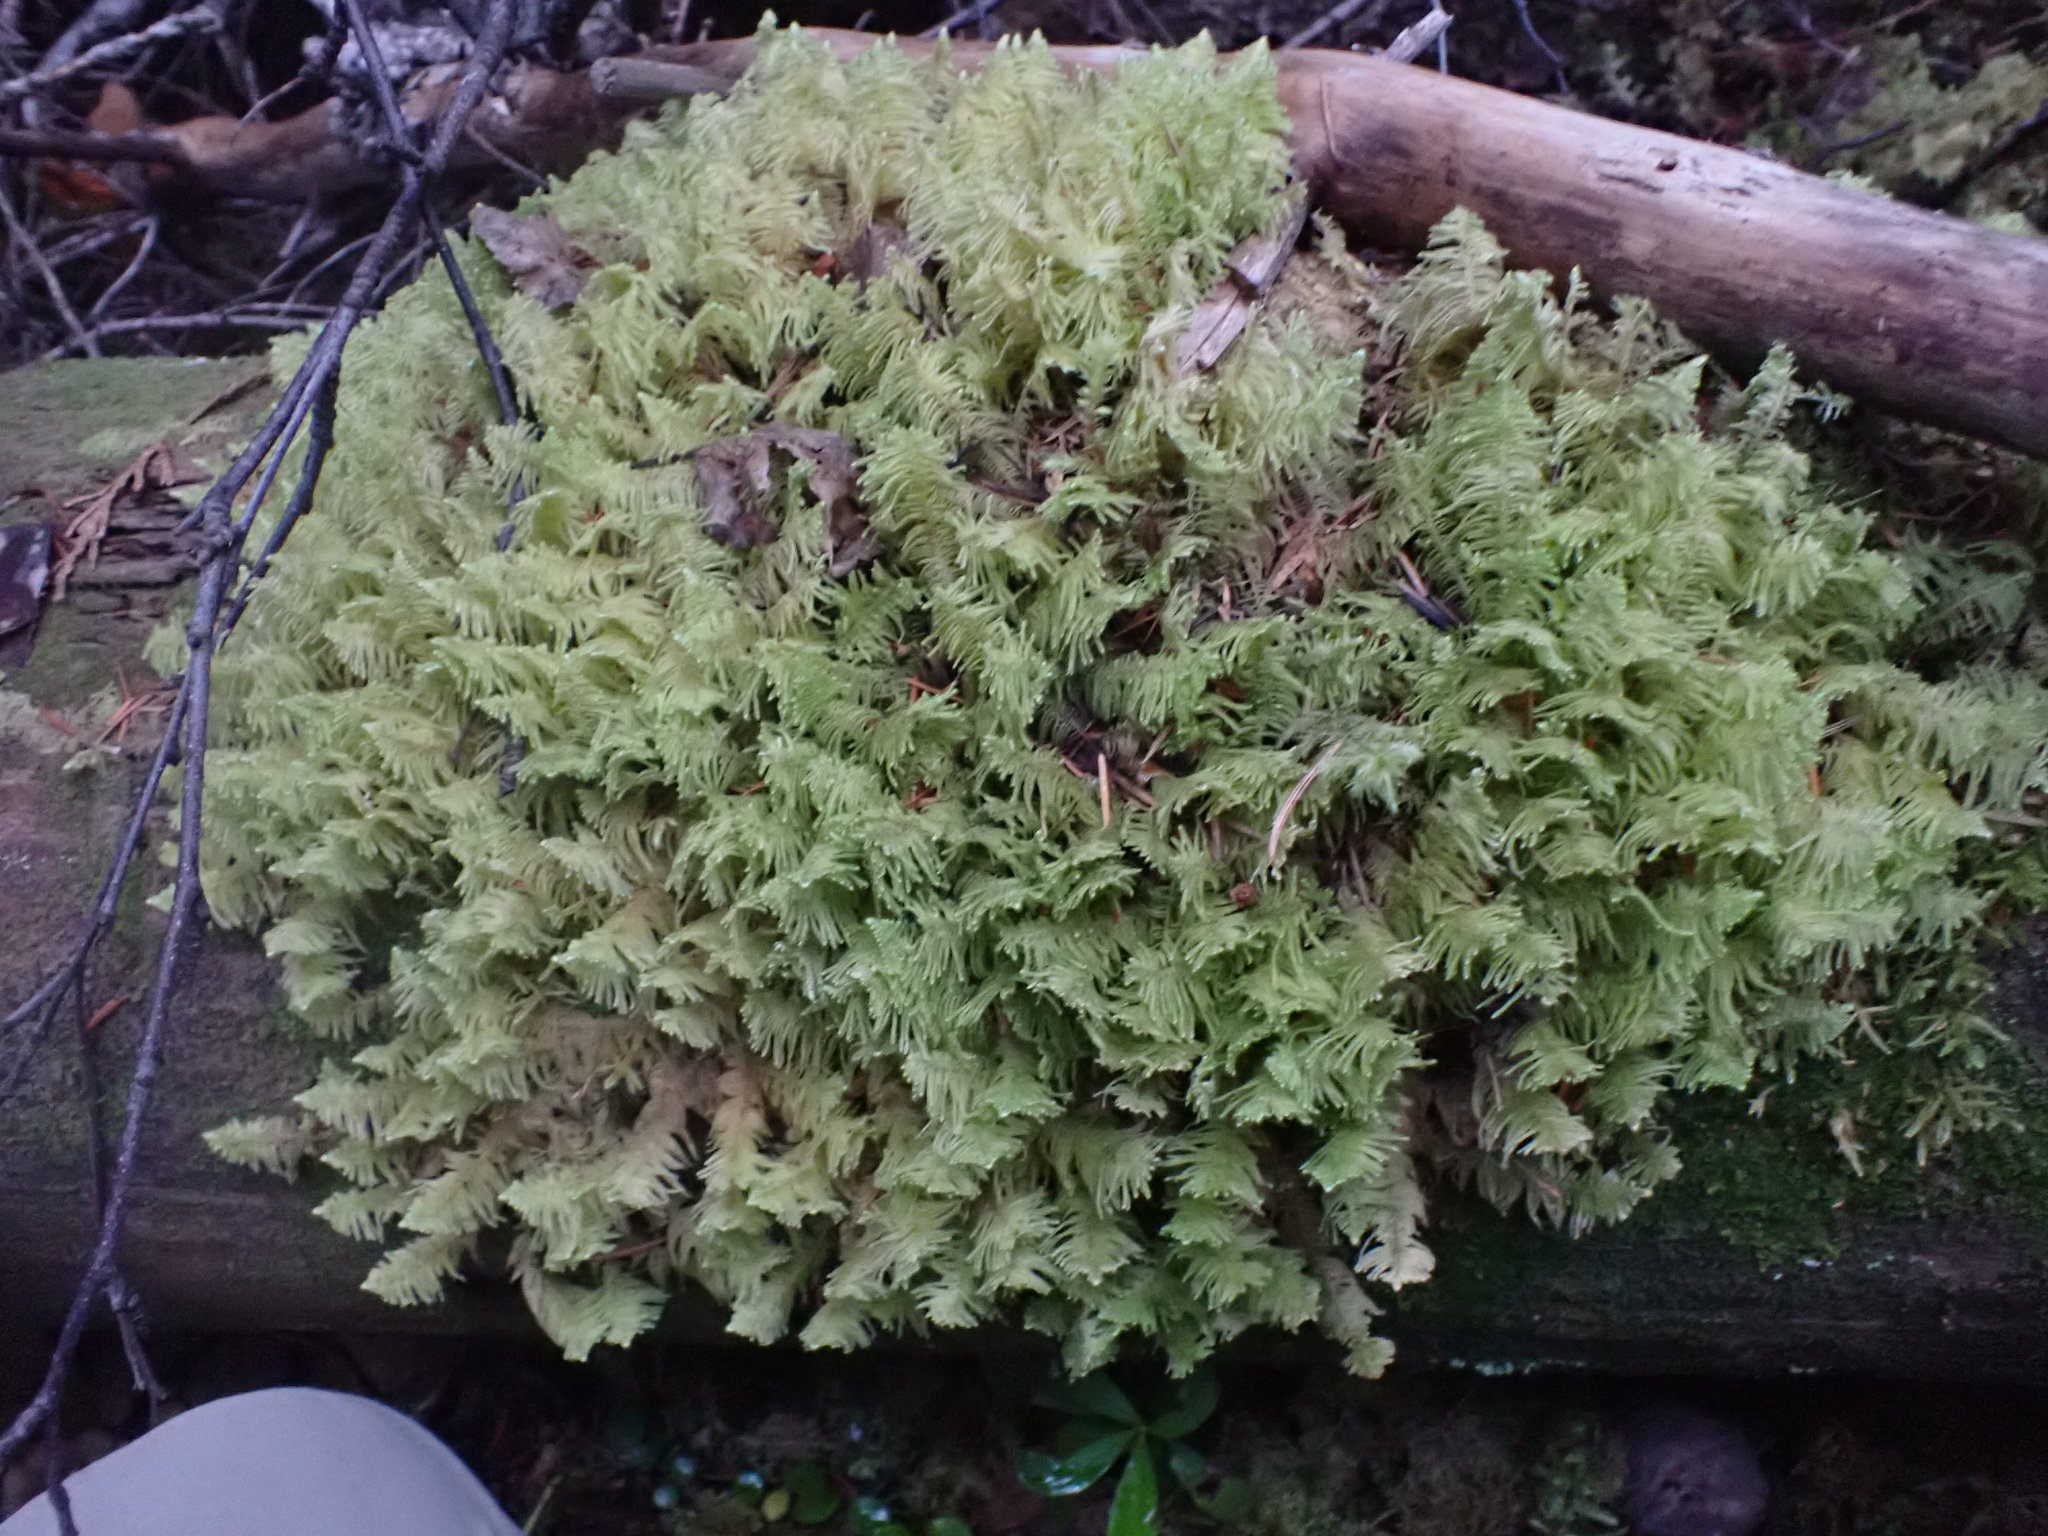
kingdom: Plantae
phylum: Bryophyta
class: Bryopsida
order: Hypnales
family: Pylaisiaceae
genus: Ptilium
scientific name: Ptilium crista-castrensis
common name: Knight's plume moss
